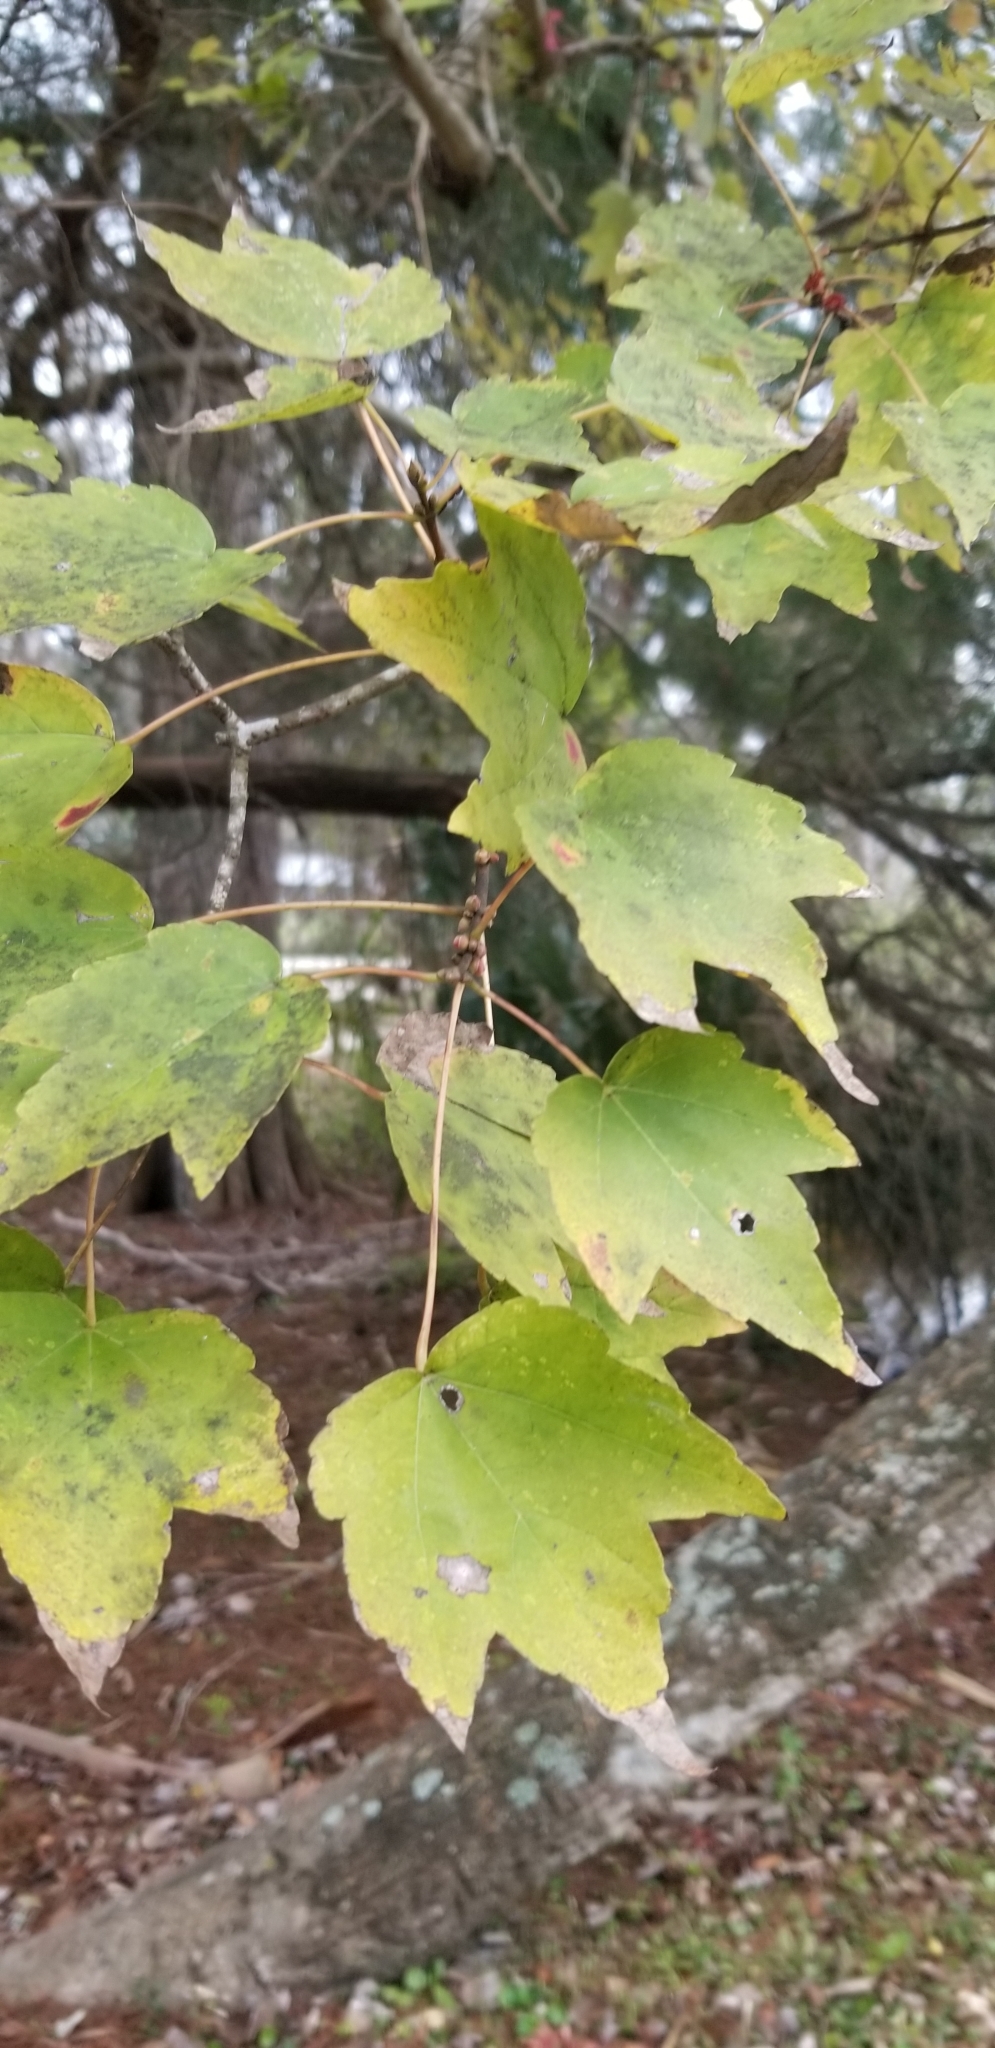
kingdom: Plantae
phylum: Tracheophyta
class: Magnoliopsida
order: Sapindales
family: Sapindaceae
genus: Acer
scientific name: Acer rubrum
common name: Red maple
